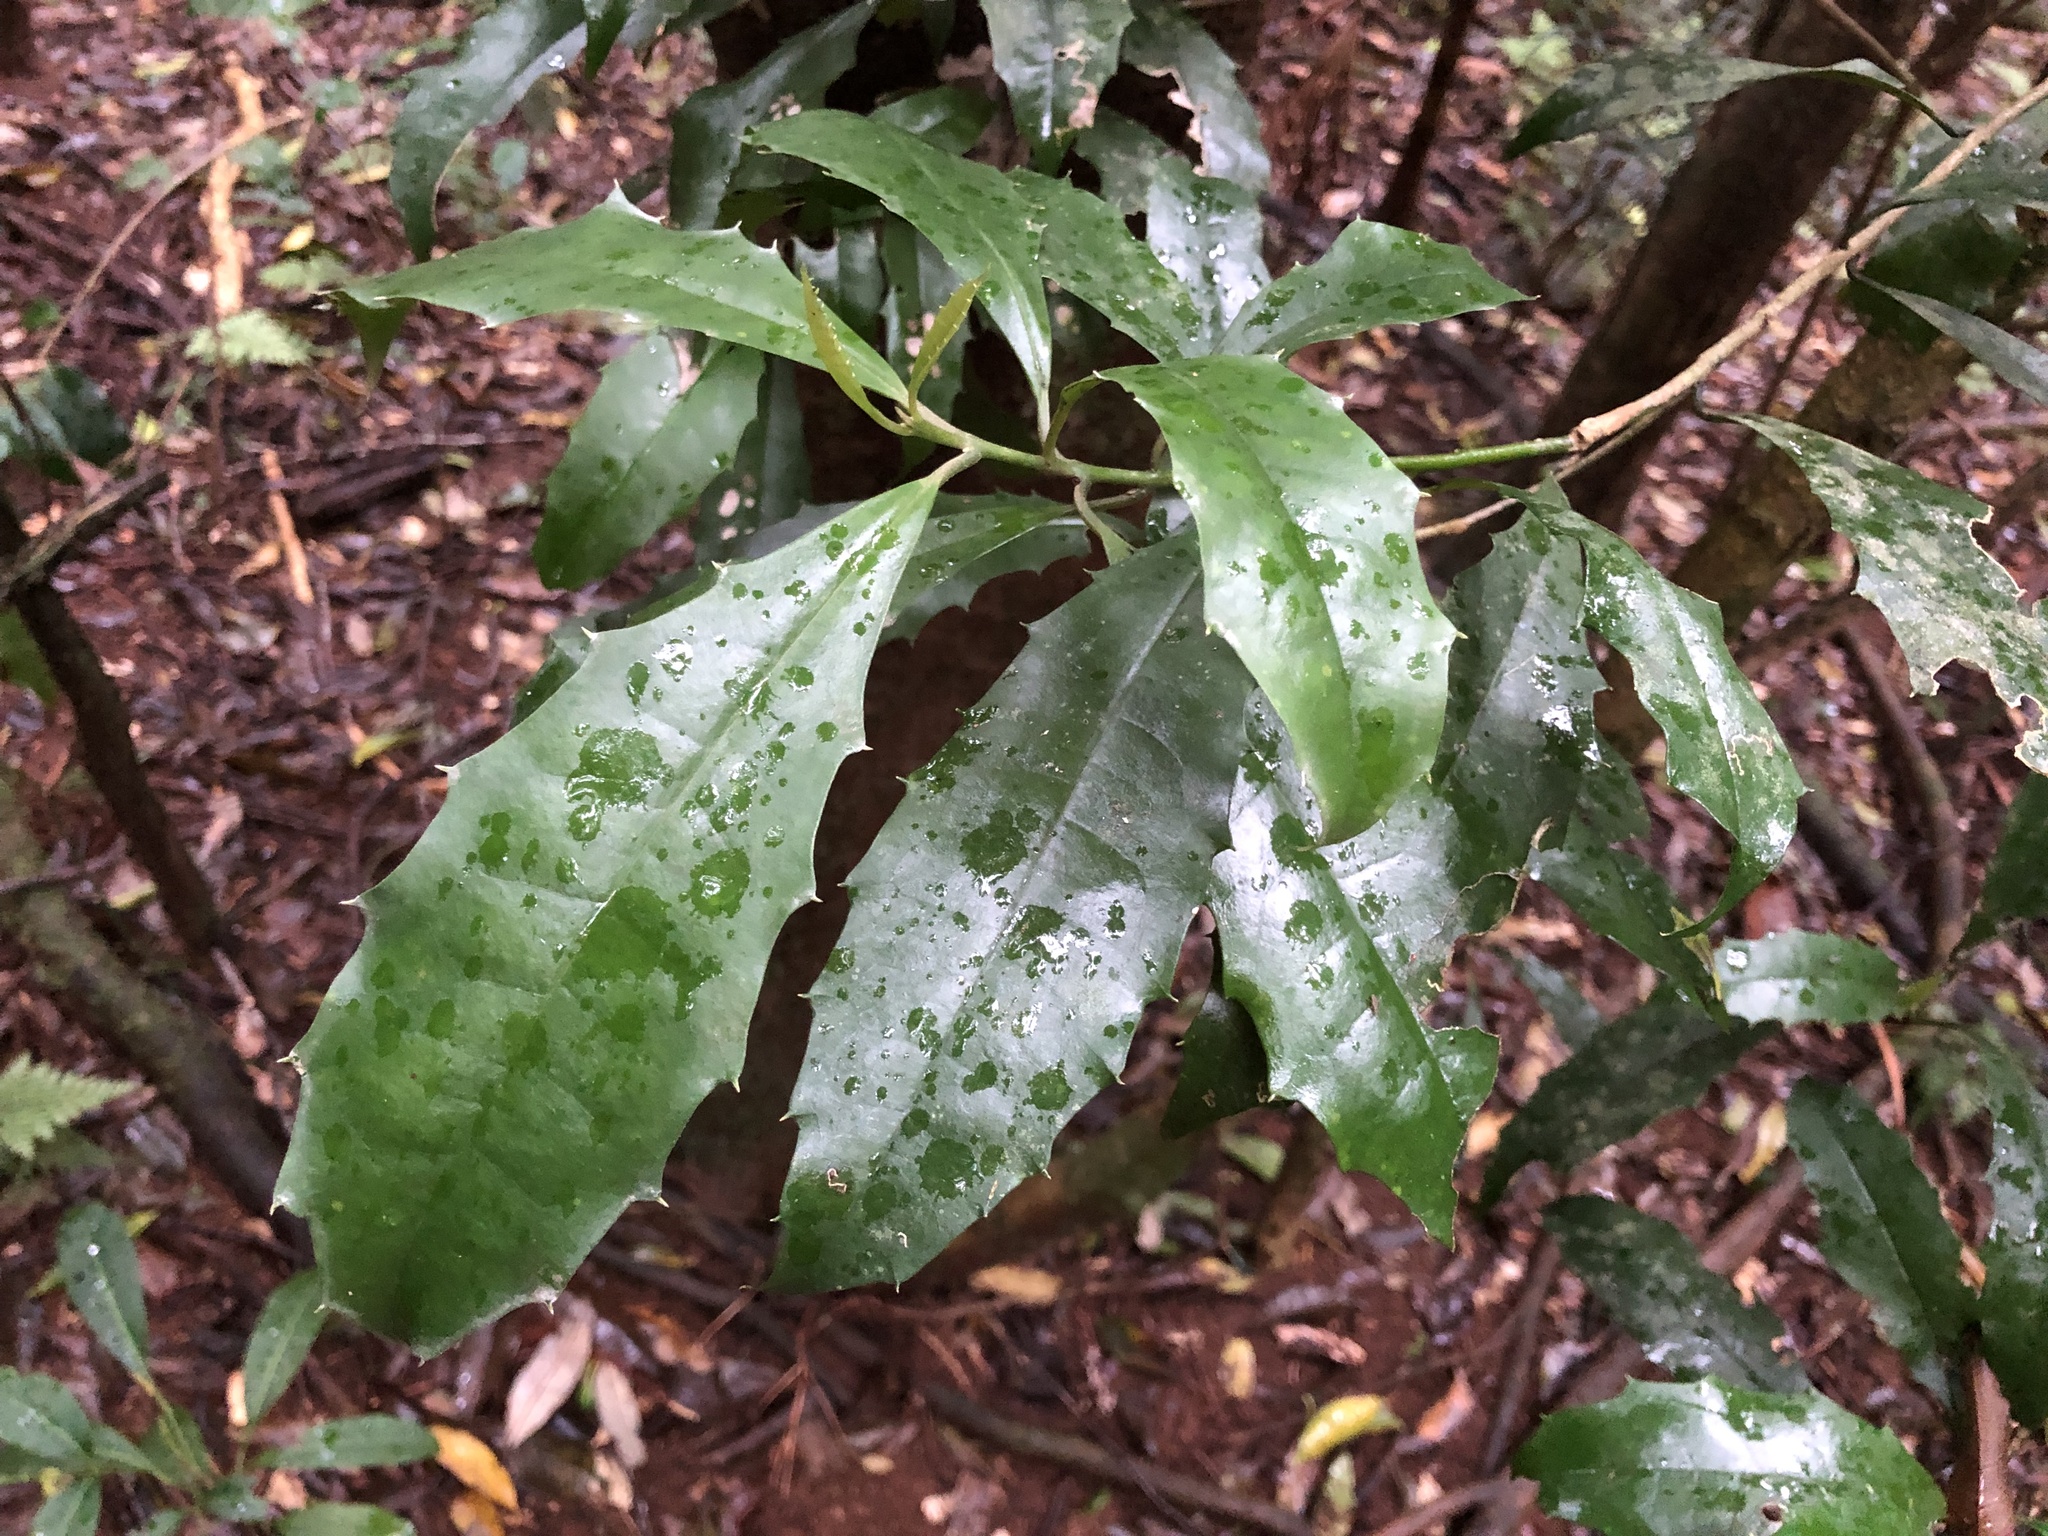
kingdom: Plantae
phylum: Tracheophyta
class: Magnoliopsida
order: Escalloniales
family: Escalloniaceae
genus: Polyosma
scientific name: Polyosma cunninghamii
